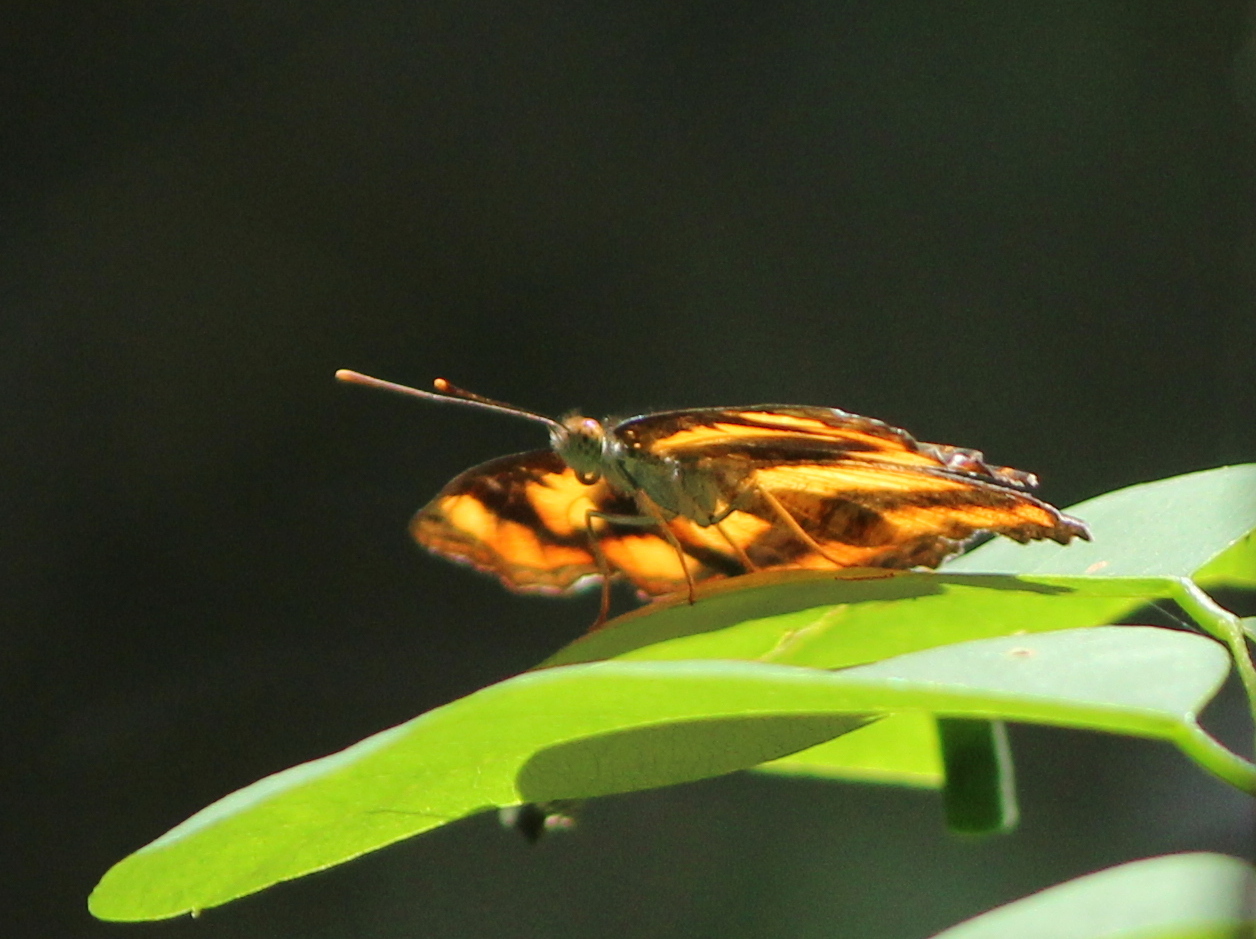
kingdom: Animalia
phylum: Arthropoda
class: Insecta
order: Lepidoptera
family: Nymphalidae
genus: Pantoporia
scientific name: Pantoporia hordonia
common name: Common lascar
